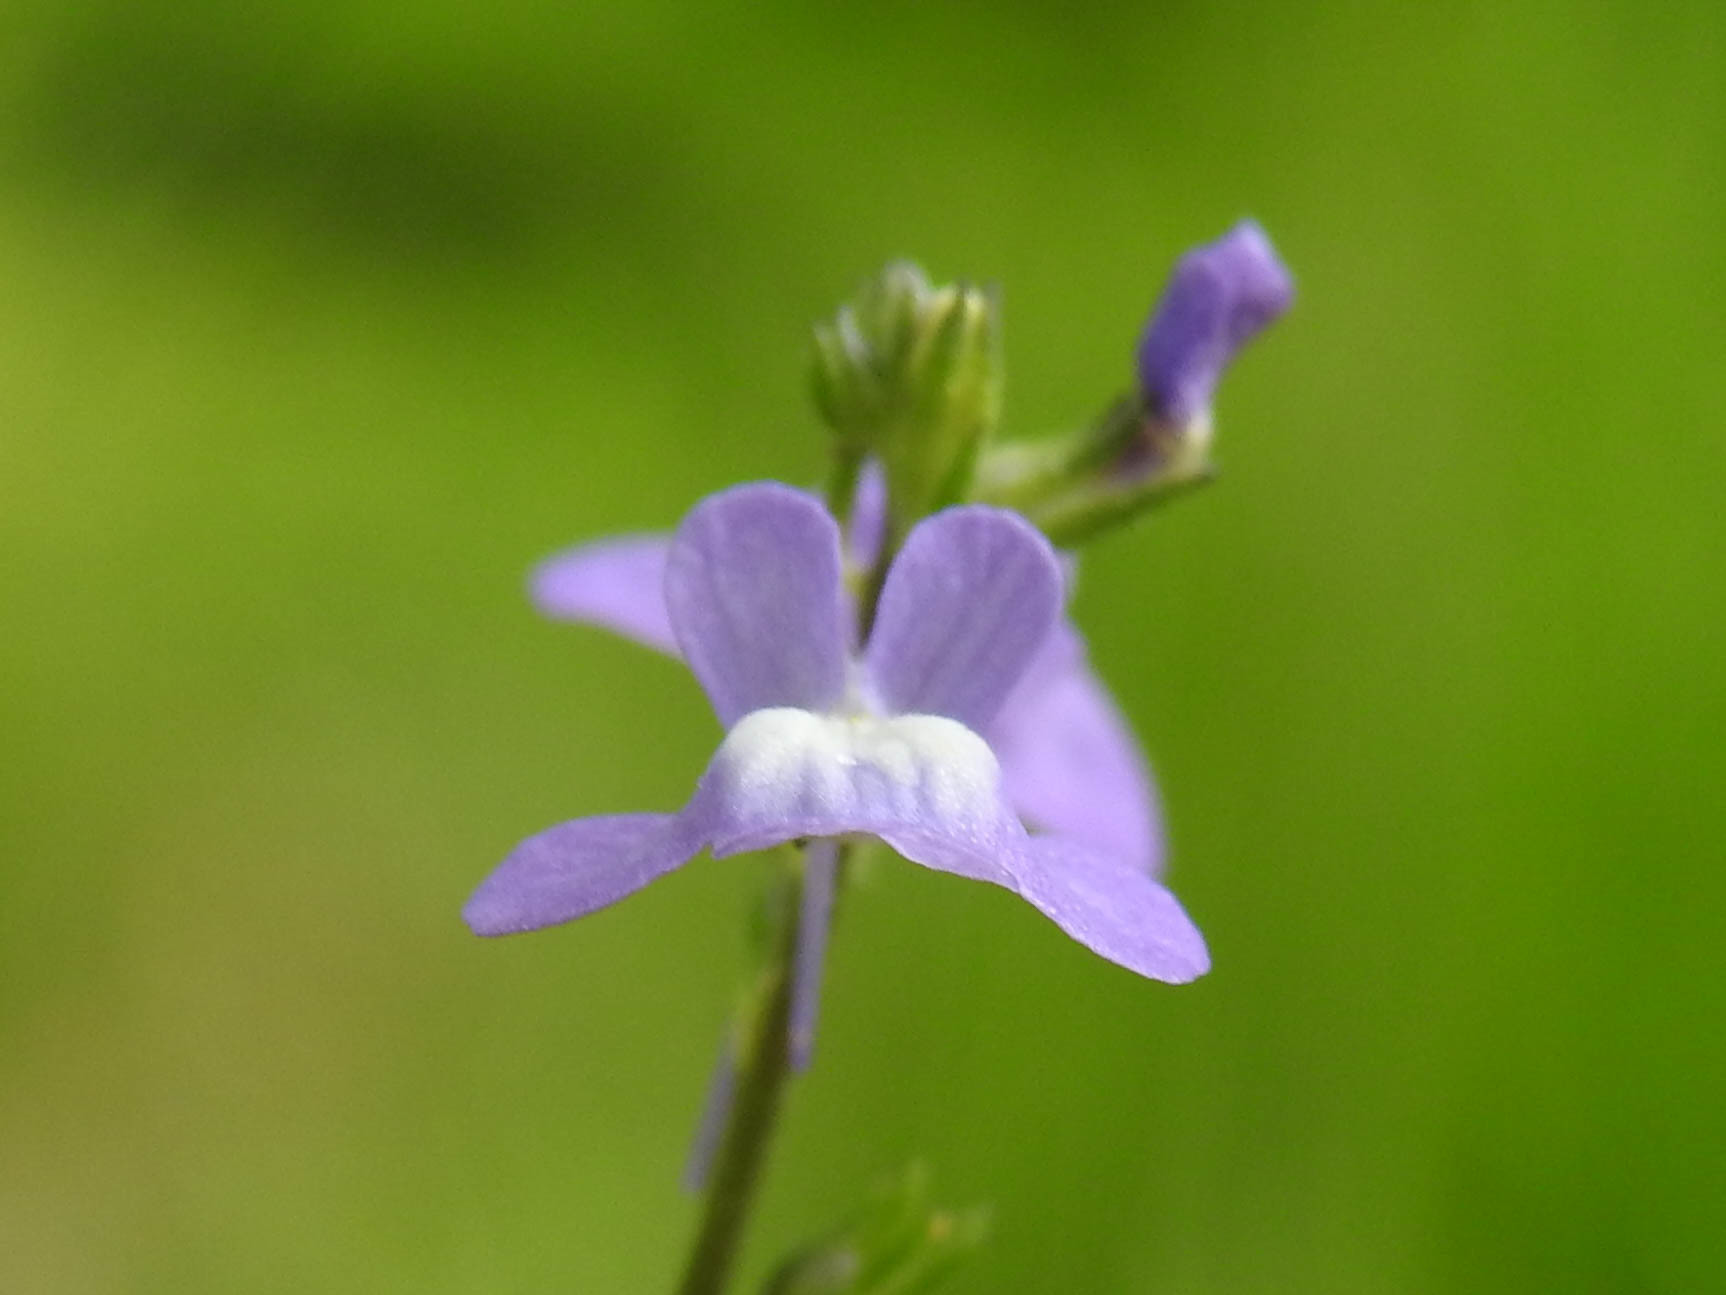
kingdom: Plantae
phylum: Tracheophyta
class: Magnoliopsida
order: Lamiales
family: Plantaginaceae
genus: Nuttallanthus
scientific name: Nuttallanthus canadensis
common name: Blue toadflax
